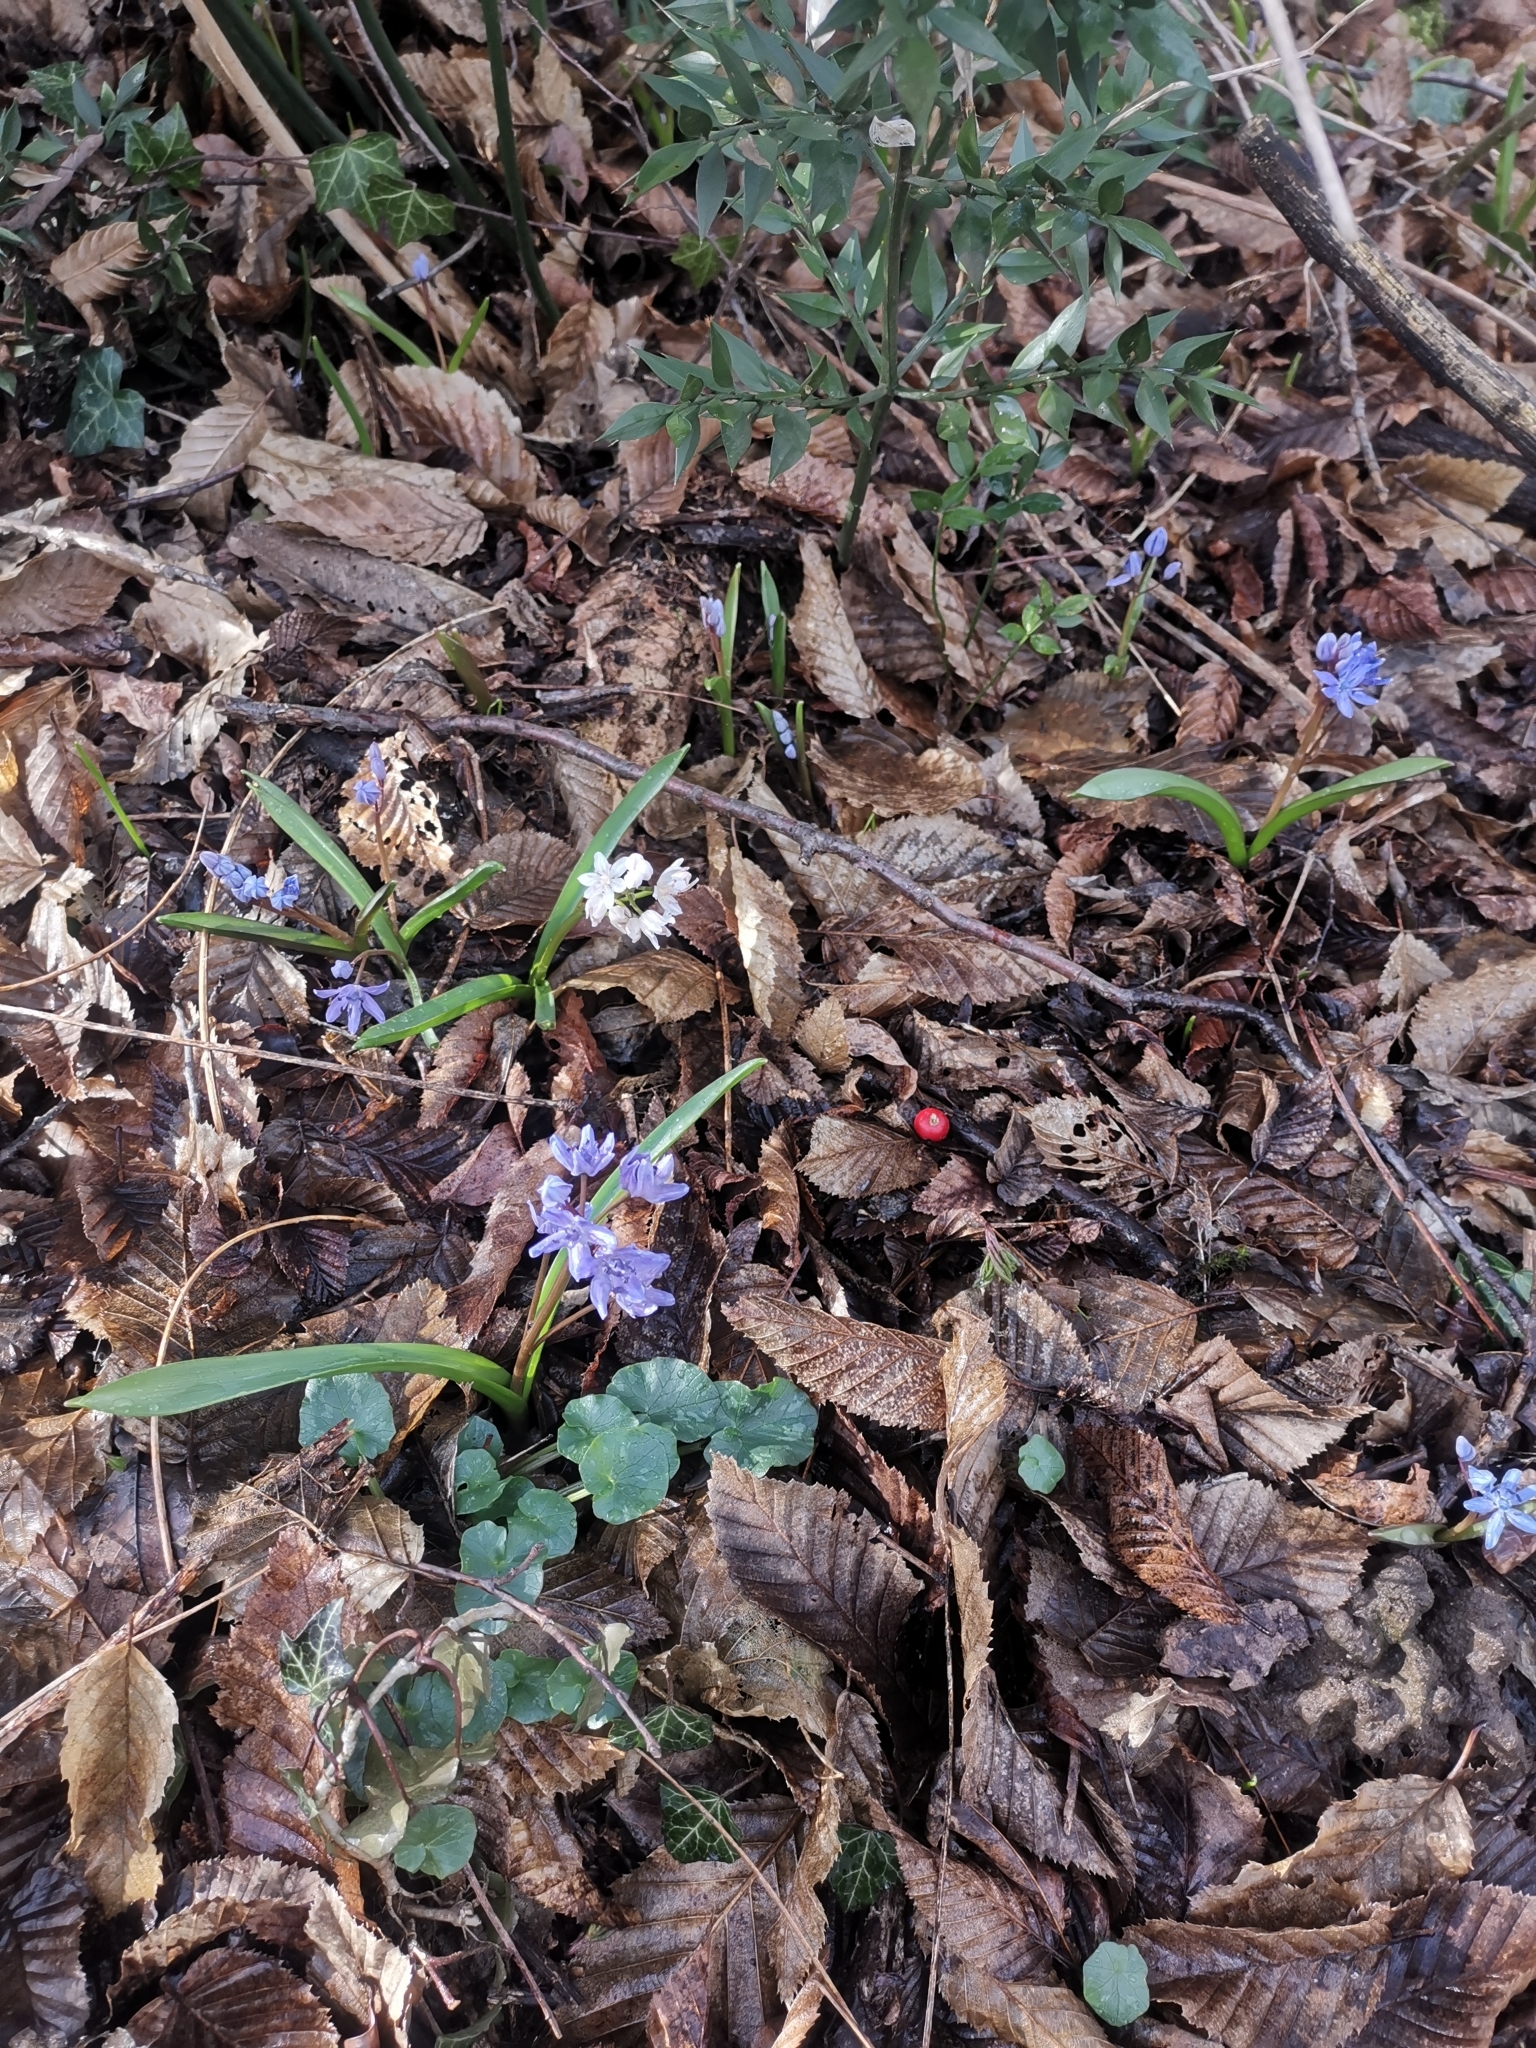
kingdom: Plantae
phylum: Tracheophyta
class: Liliopsida
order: Asparagales
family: Asparagaceae
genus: Scilla
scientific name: Scilla bifolia
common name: Alpine squill
